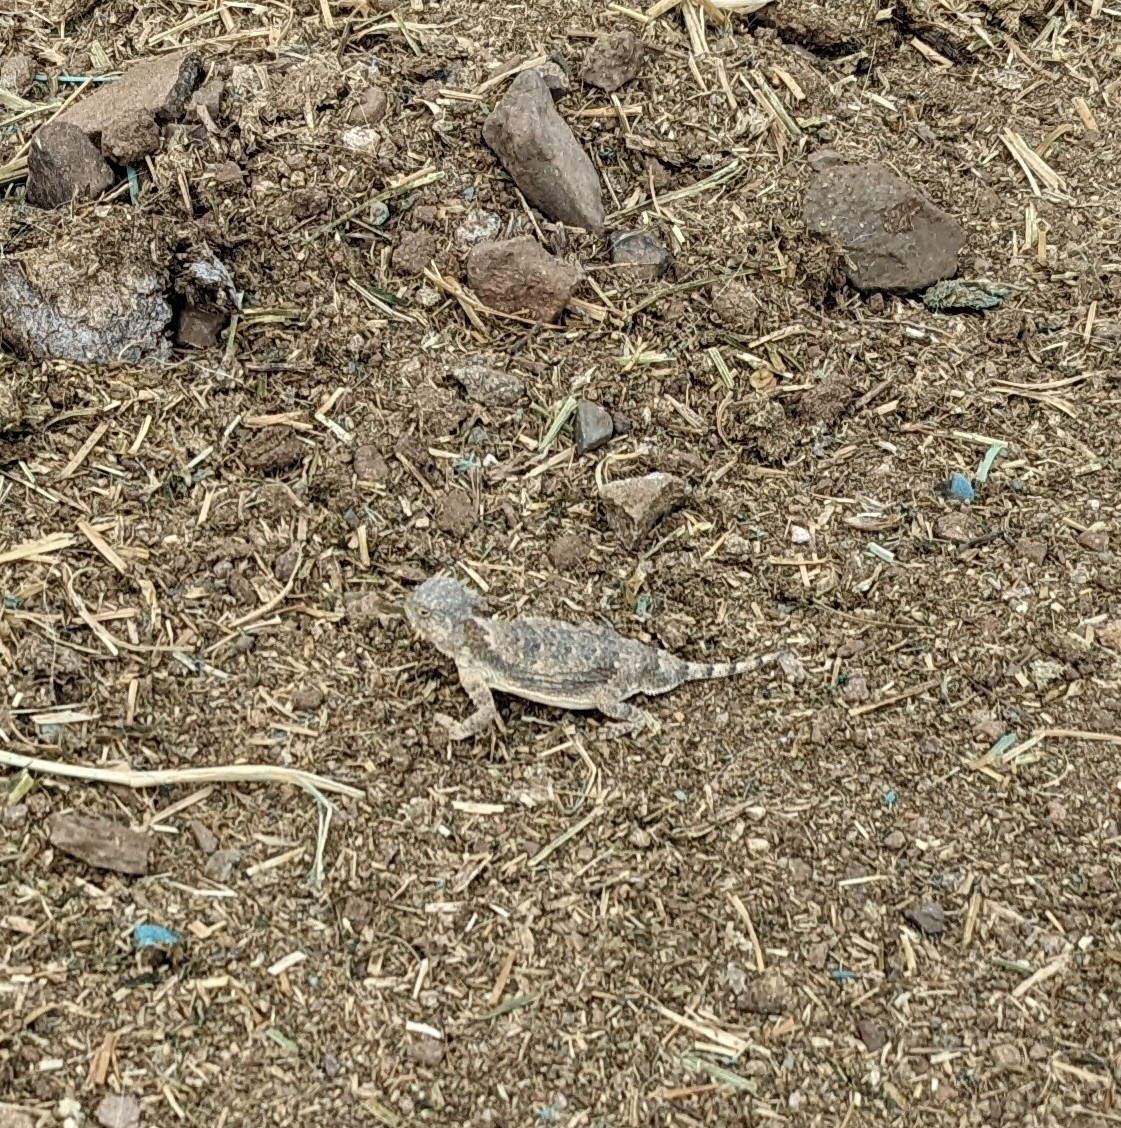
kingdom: Animalia
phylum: Chordata
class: Squamata
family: Phrynosomatidae
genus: Phrynosoma
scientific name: Phrynosoma modestum
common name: Roundtail horned lizard
